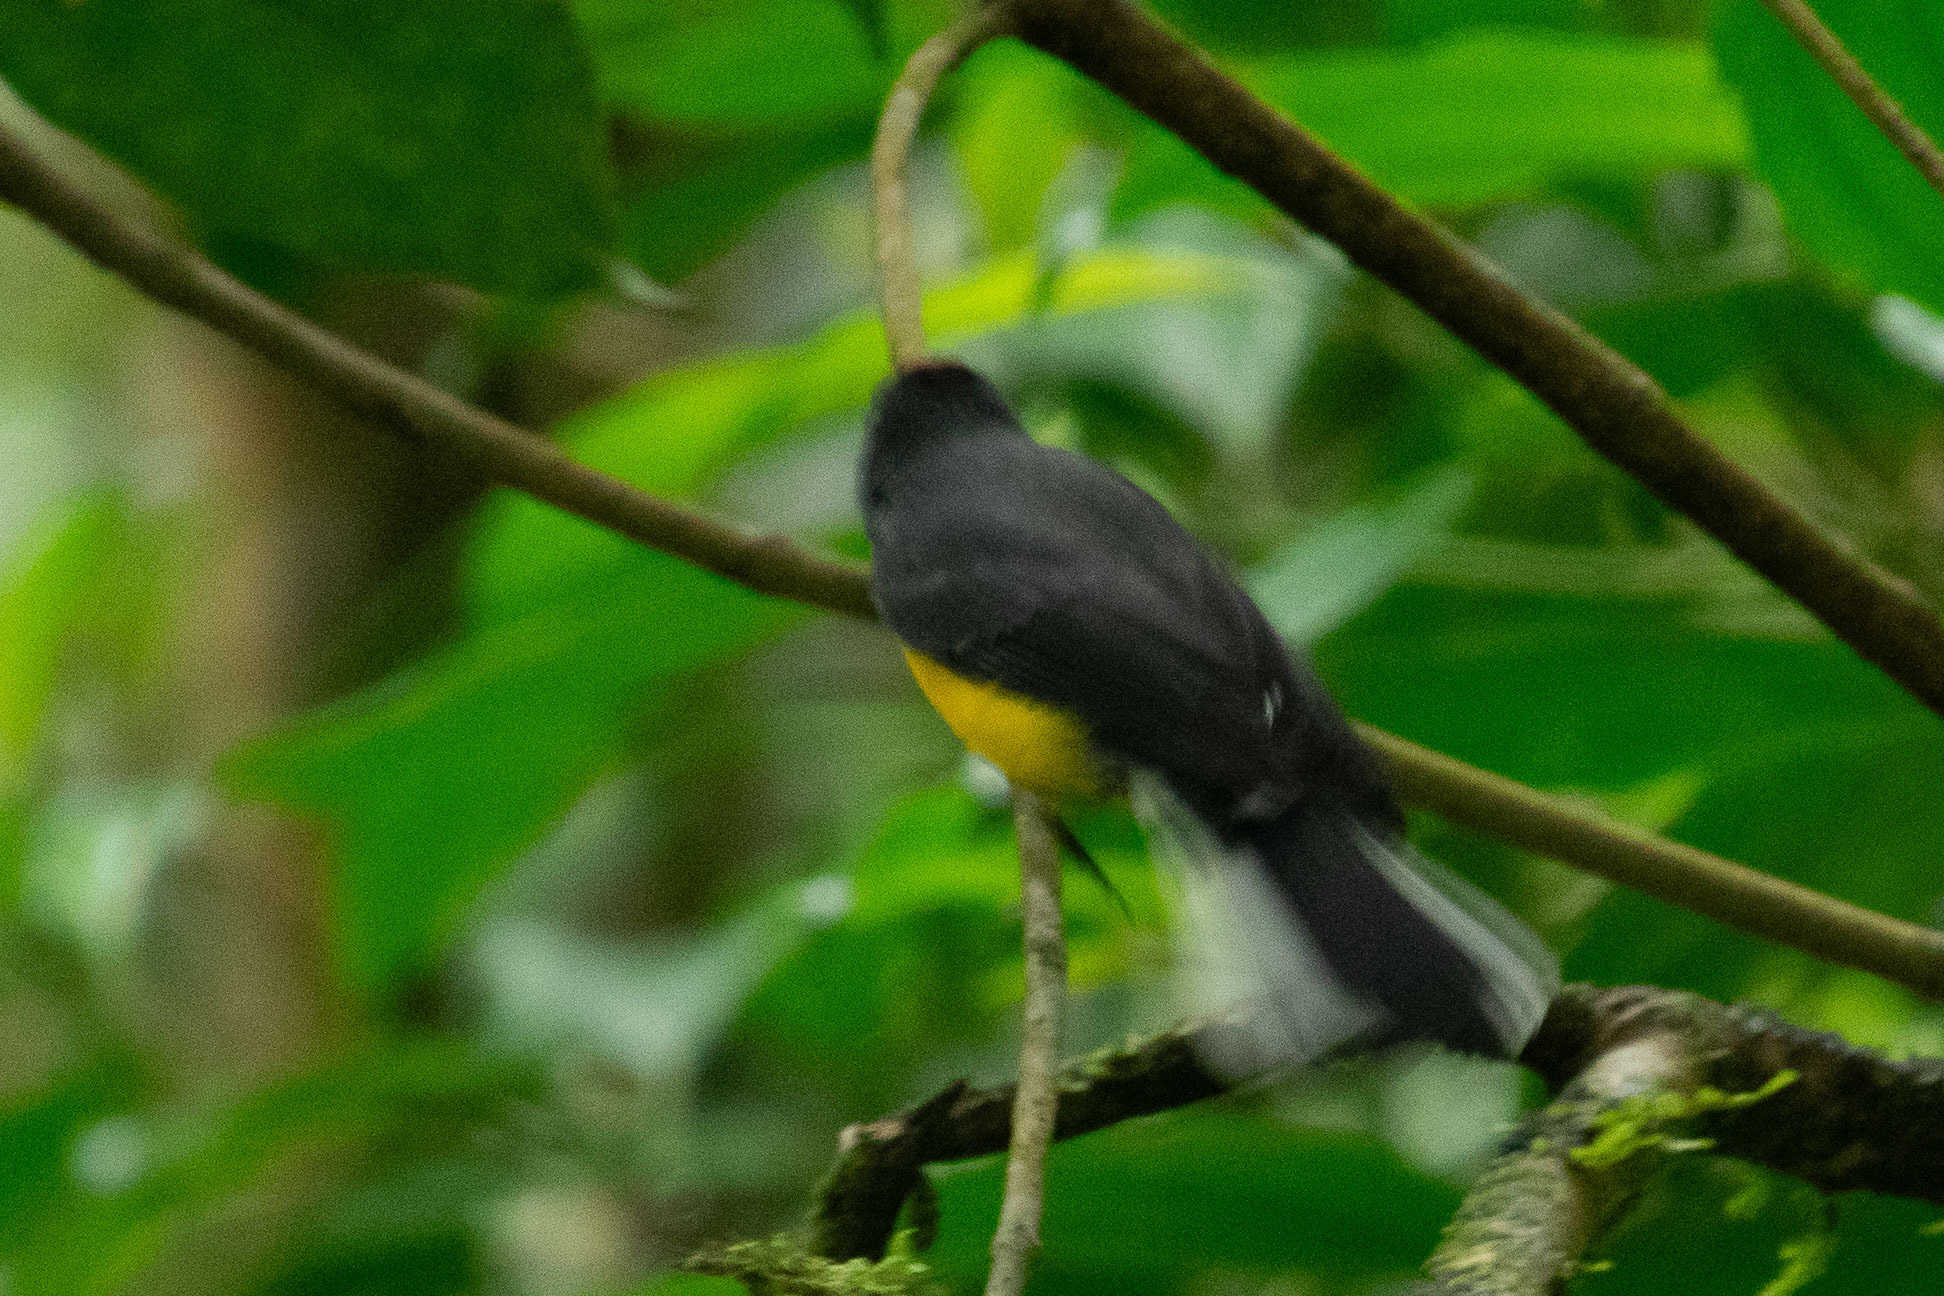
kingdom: Animalia
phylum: Chordata
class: Aves
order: Passeriformes
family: Parulidae
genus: Myioborus
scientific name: Myioborus miniatus
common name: Slate-throated redstart
